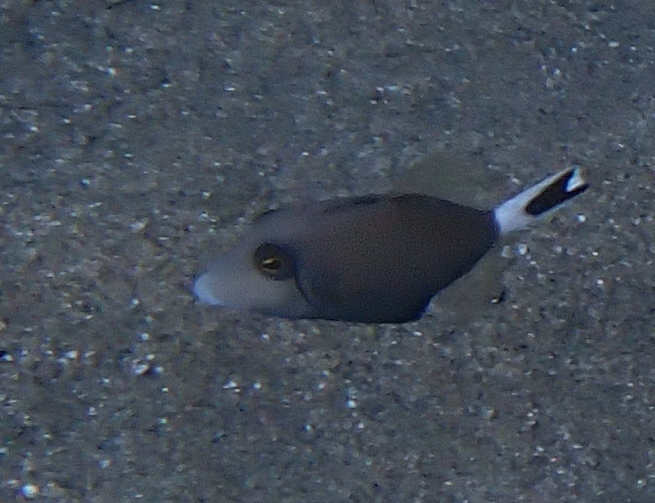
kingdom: Animalia
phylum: Chordata
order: Tetraodontiformes
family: Balistidae
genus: Sufflamen
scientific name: Sufflamen albicaudatum
